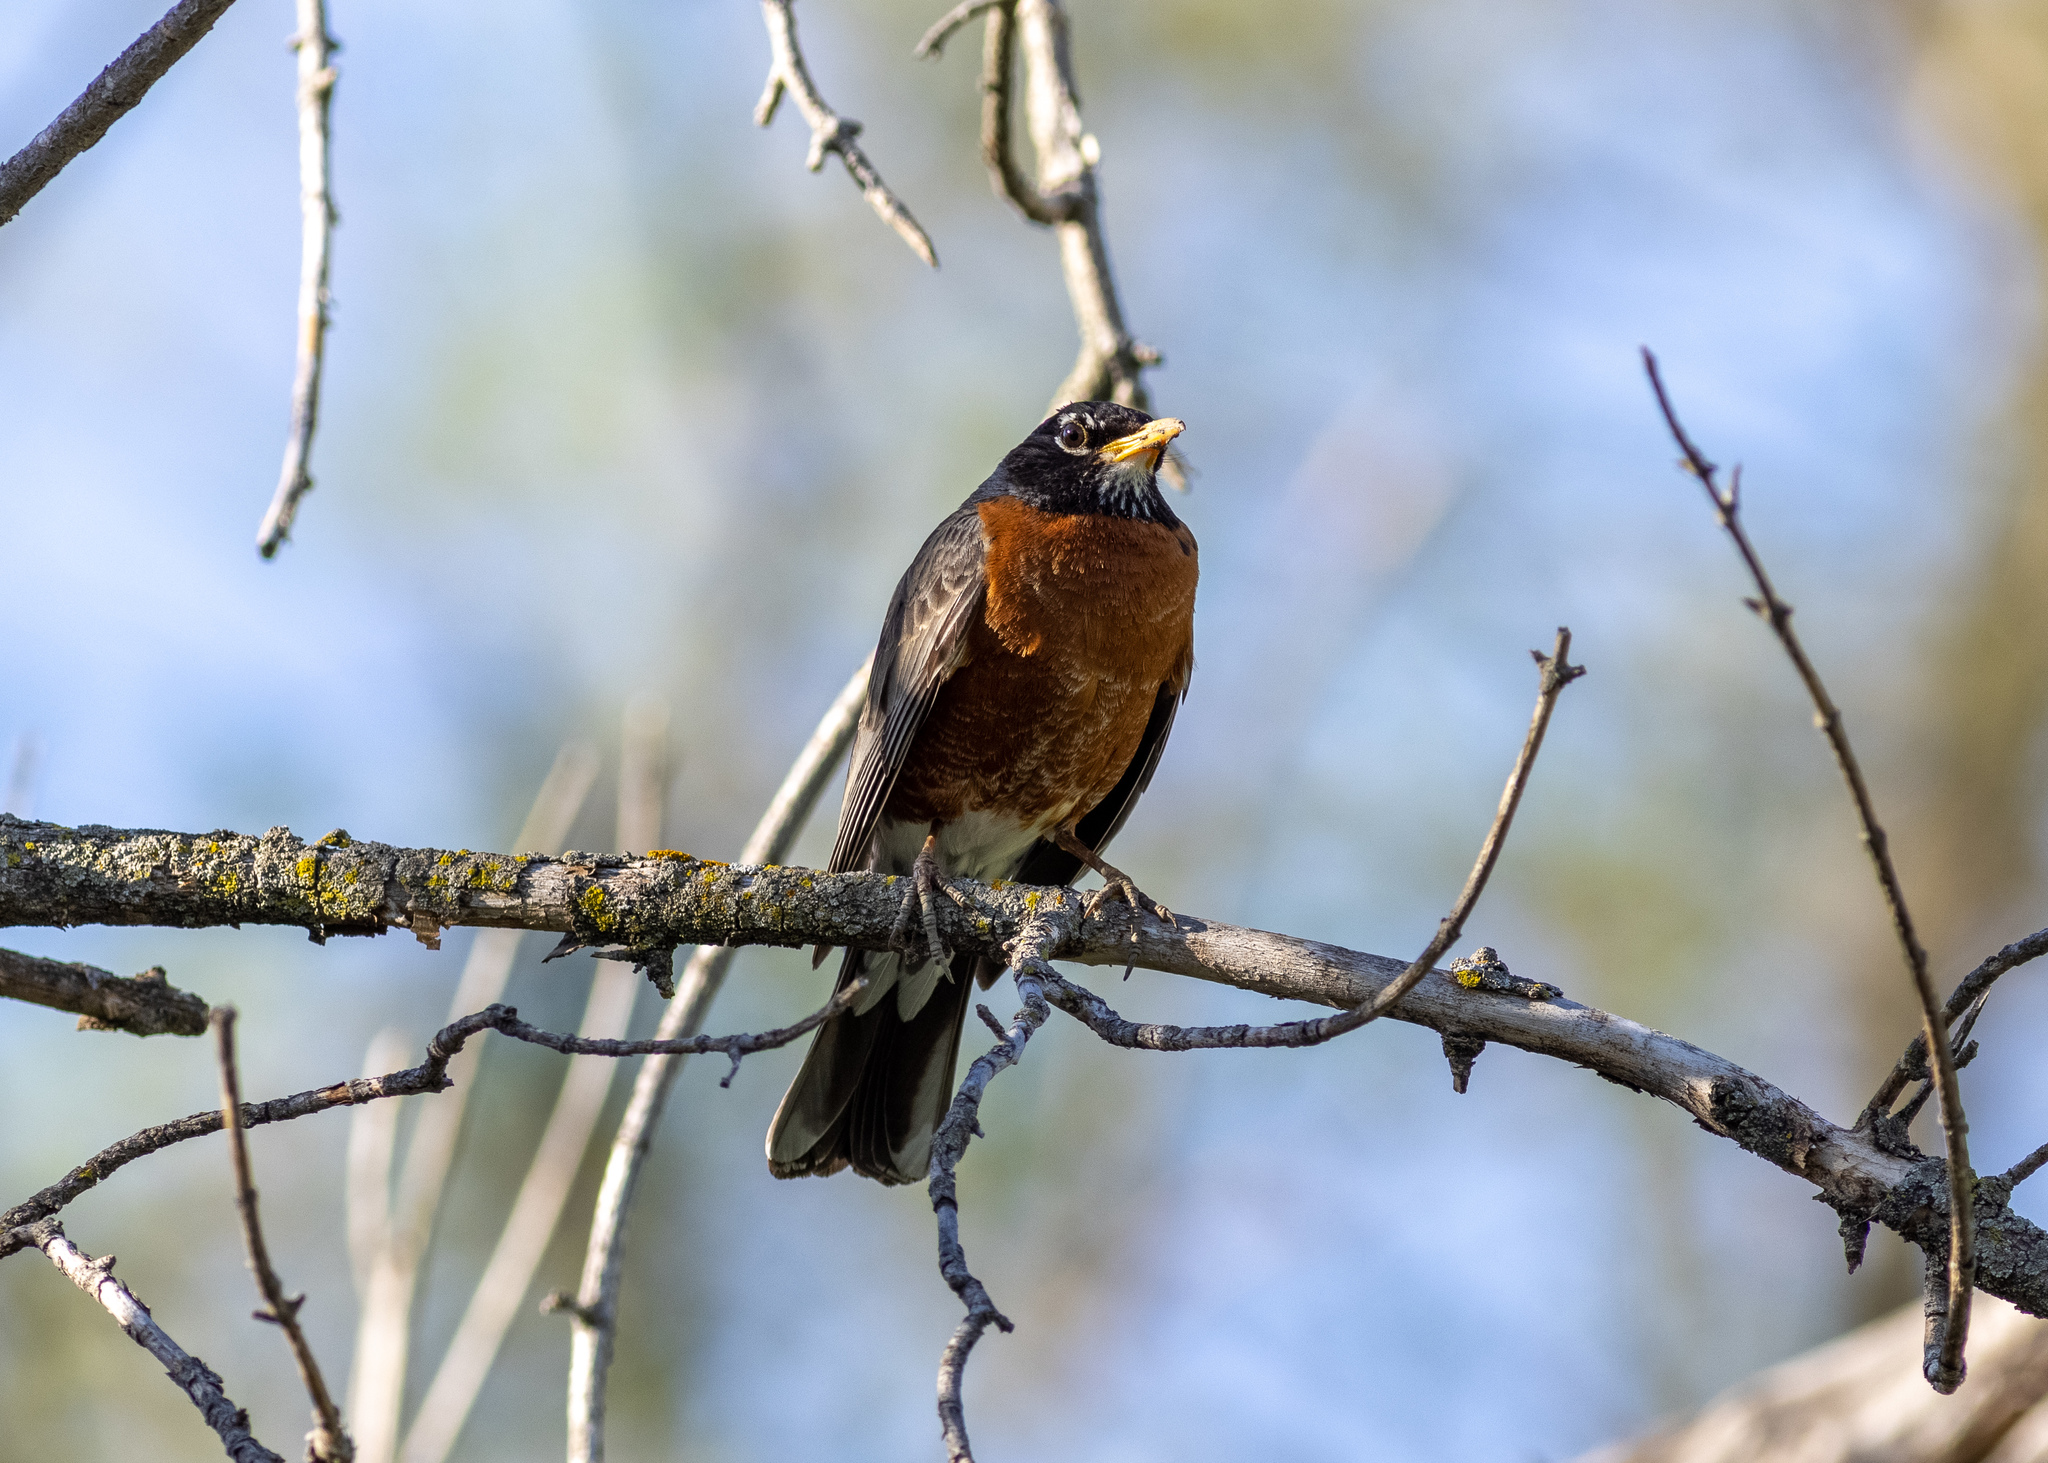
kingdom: Animalia
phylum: Chordata
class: Aves
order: Passeriformes
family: Turdidae
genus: Turdus
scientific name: Turdus migratorius
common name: American robin
